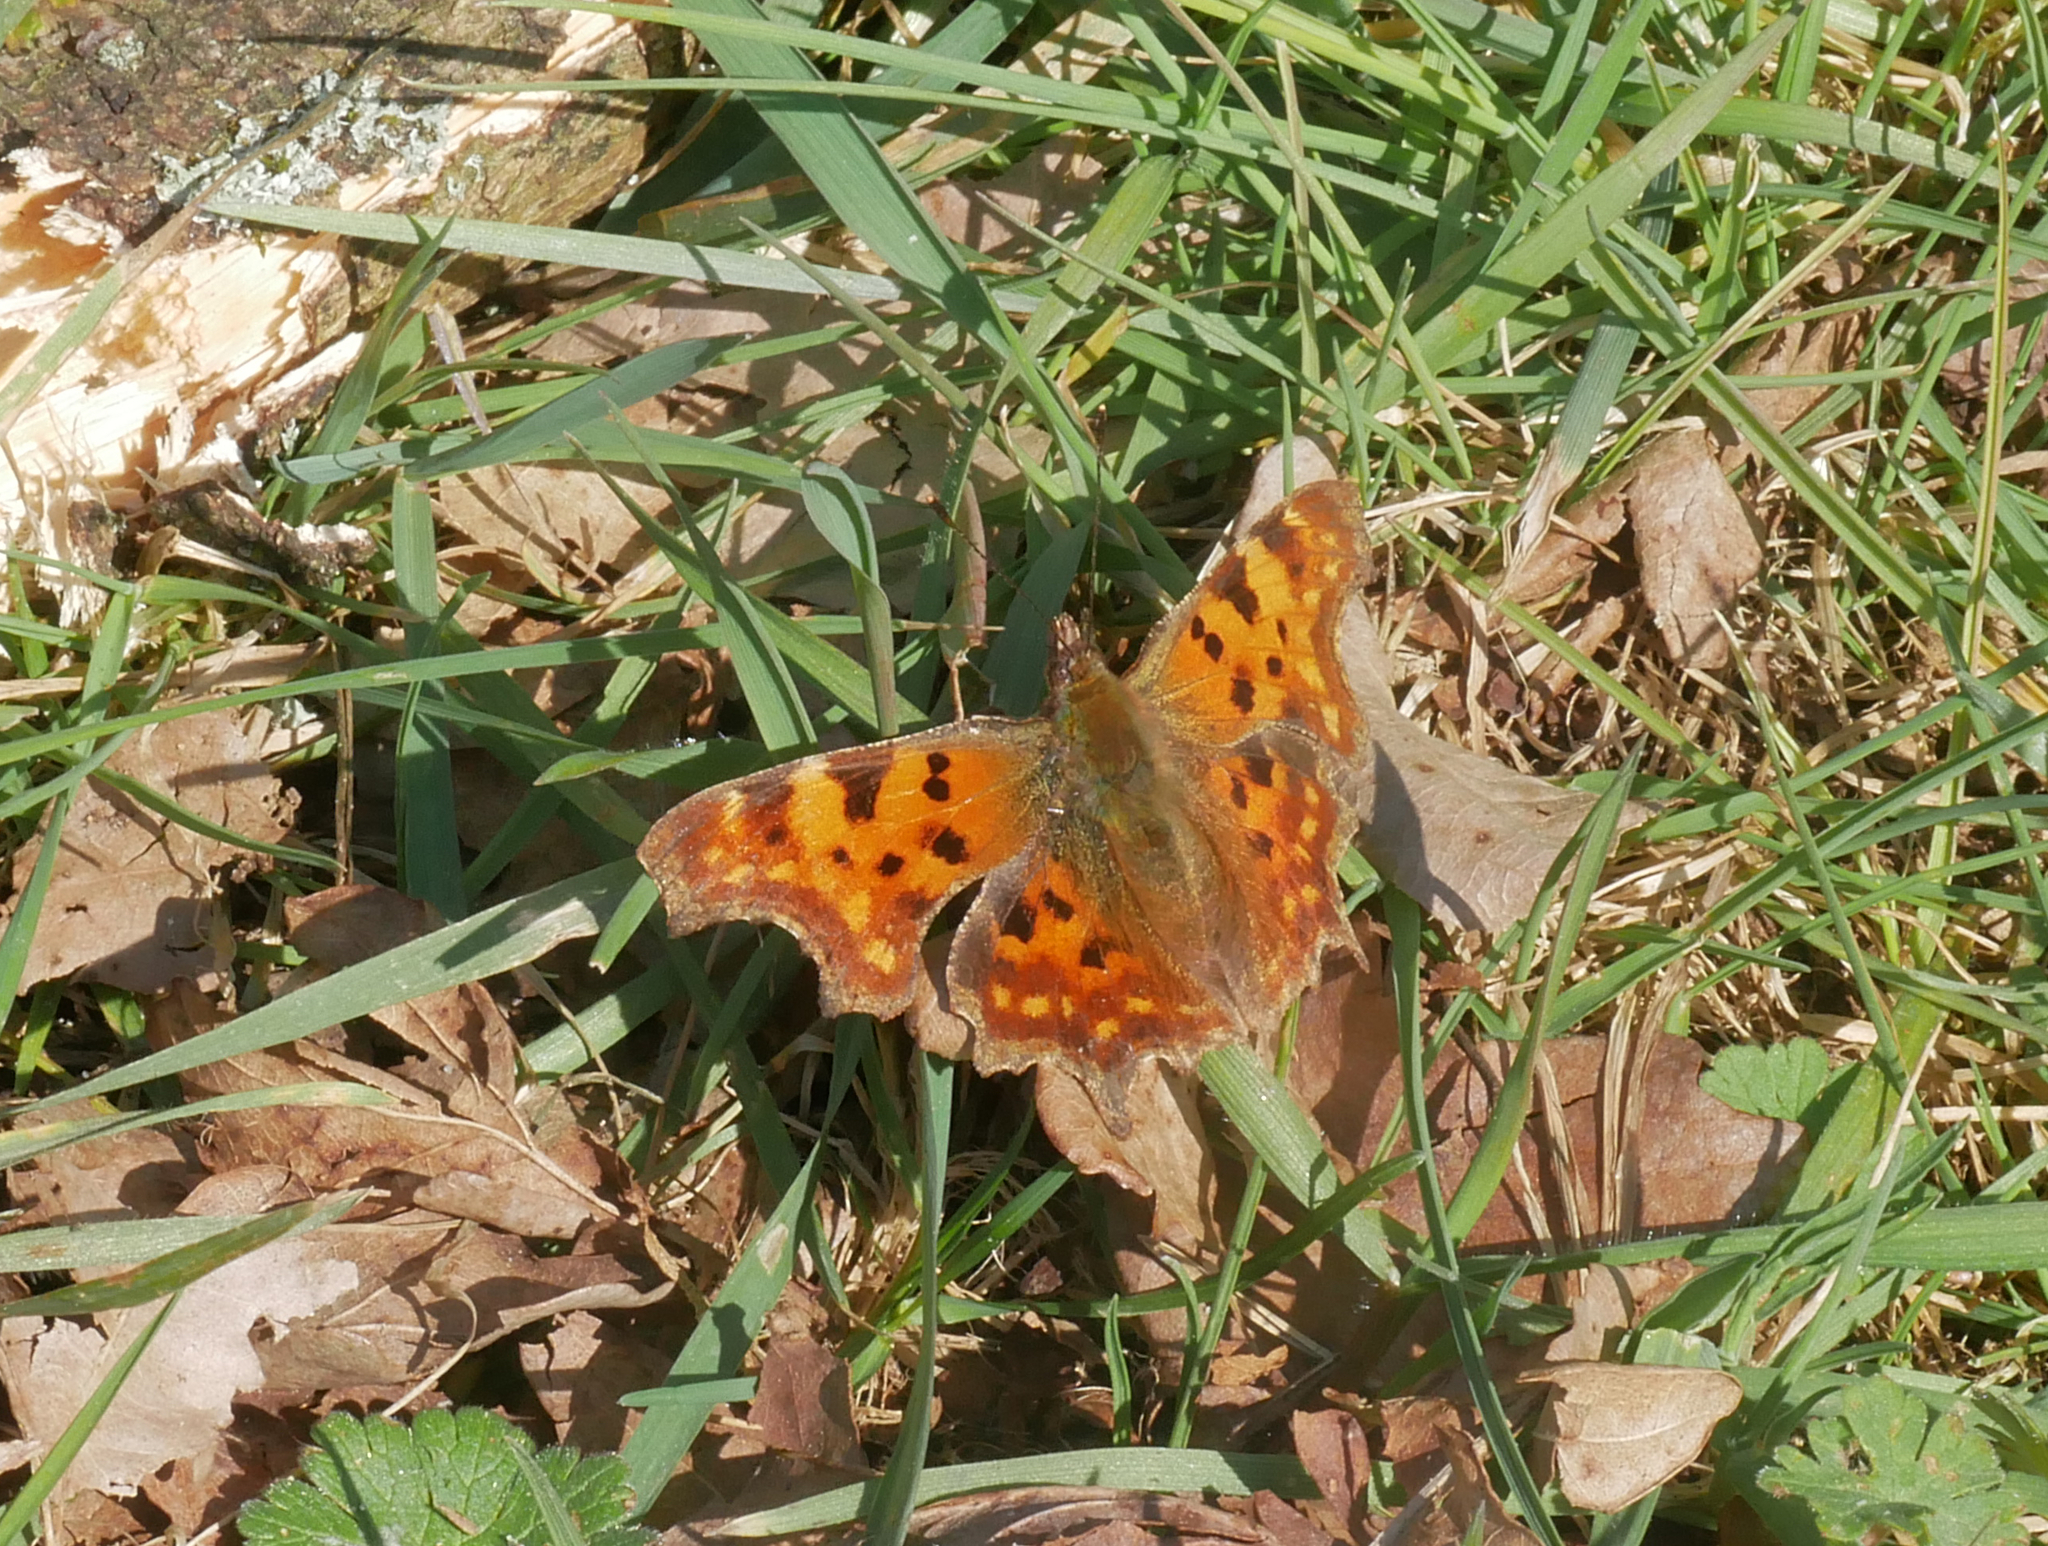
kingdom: Animalia
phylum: Arthropoda
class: Insecta
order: Lepidoptera
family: Nymphalidae
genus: Polygonia
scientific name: Polygonia c-album
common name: Comma
